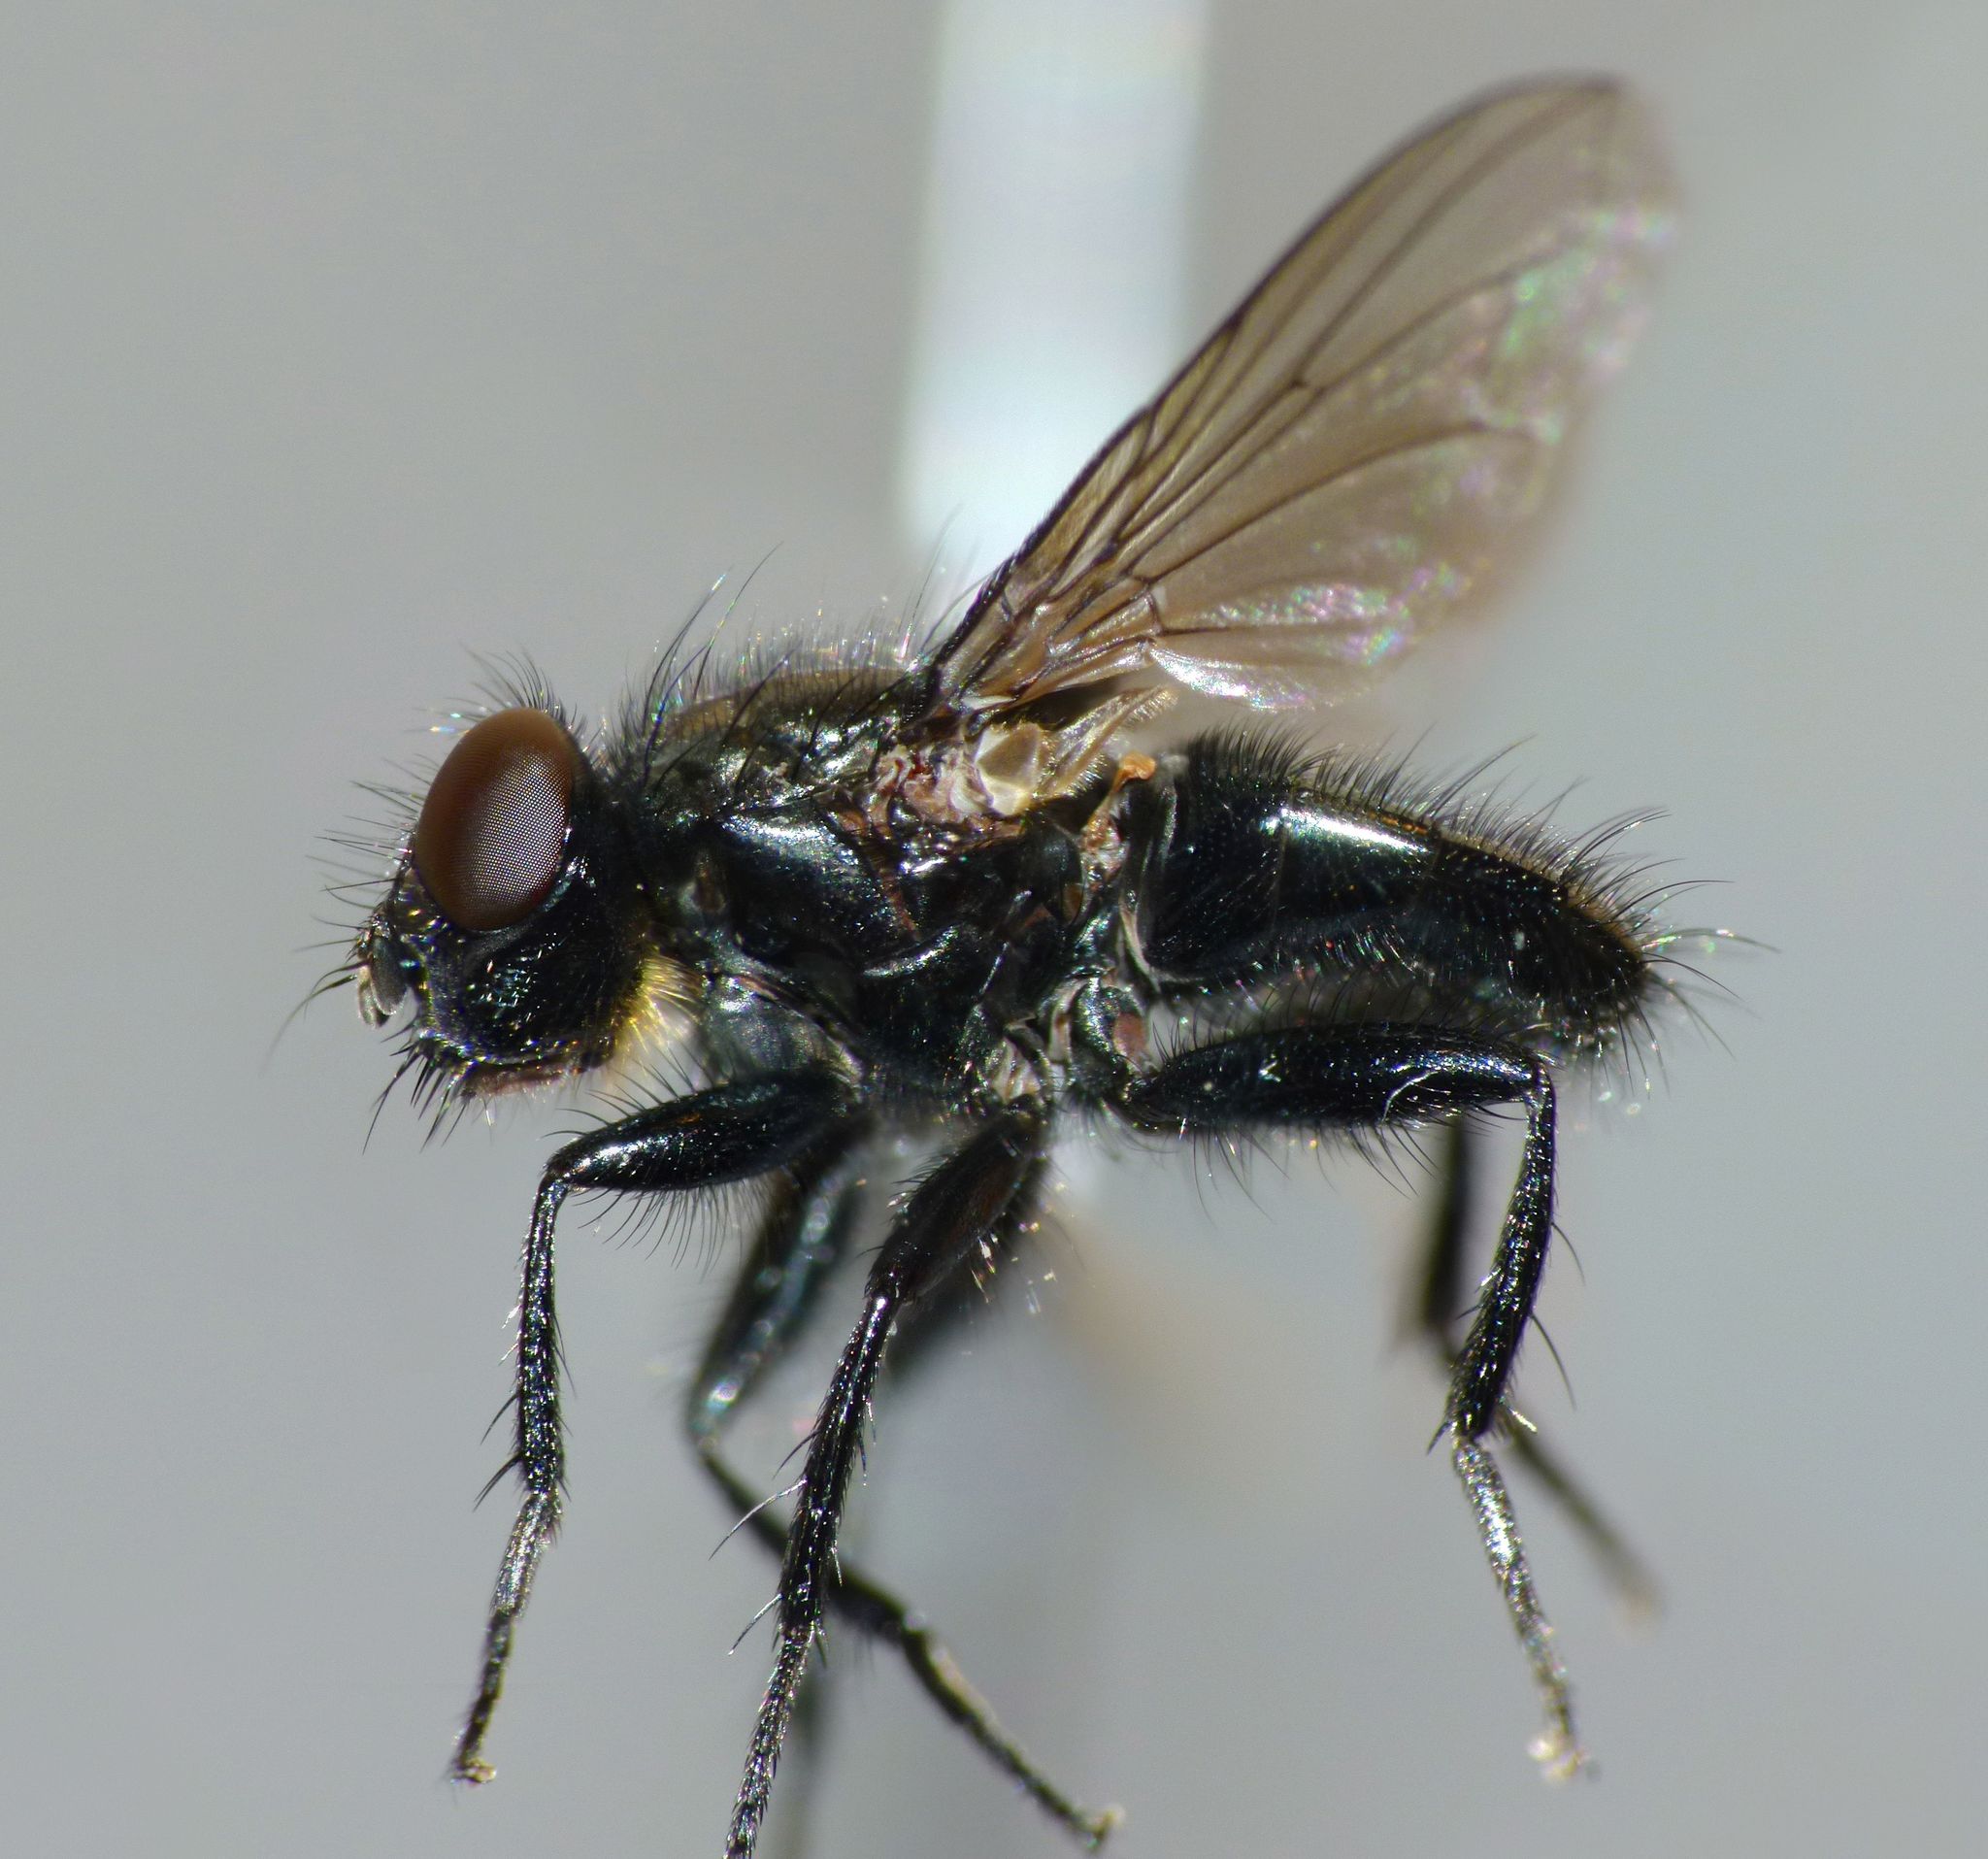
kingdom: Animalia
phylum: Arthropoda
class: Insecta
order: Diptera
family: Polleniidae
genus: Pollenia
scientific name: Pollenia pernix
